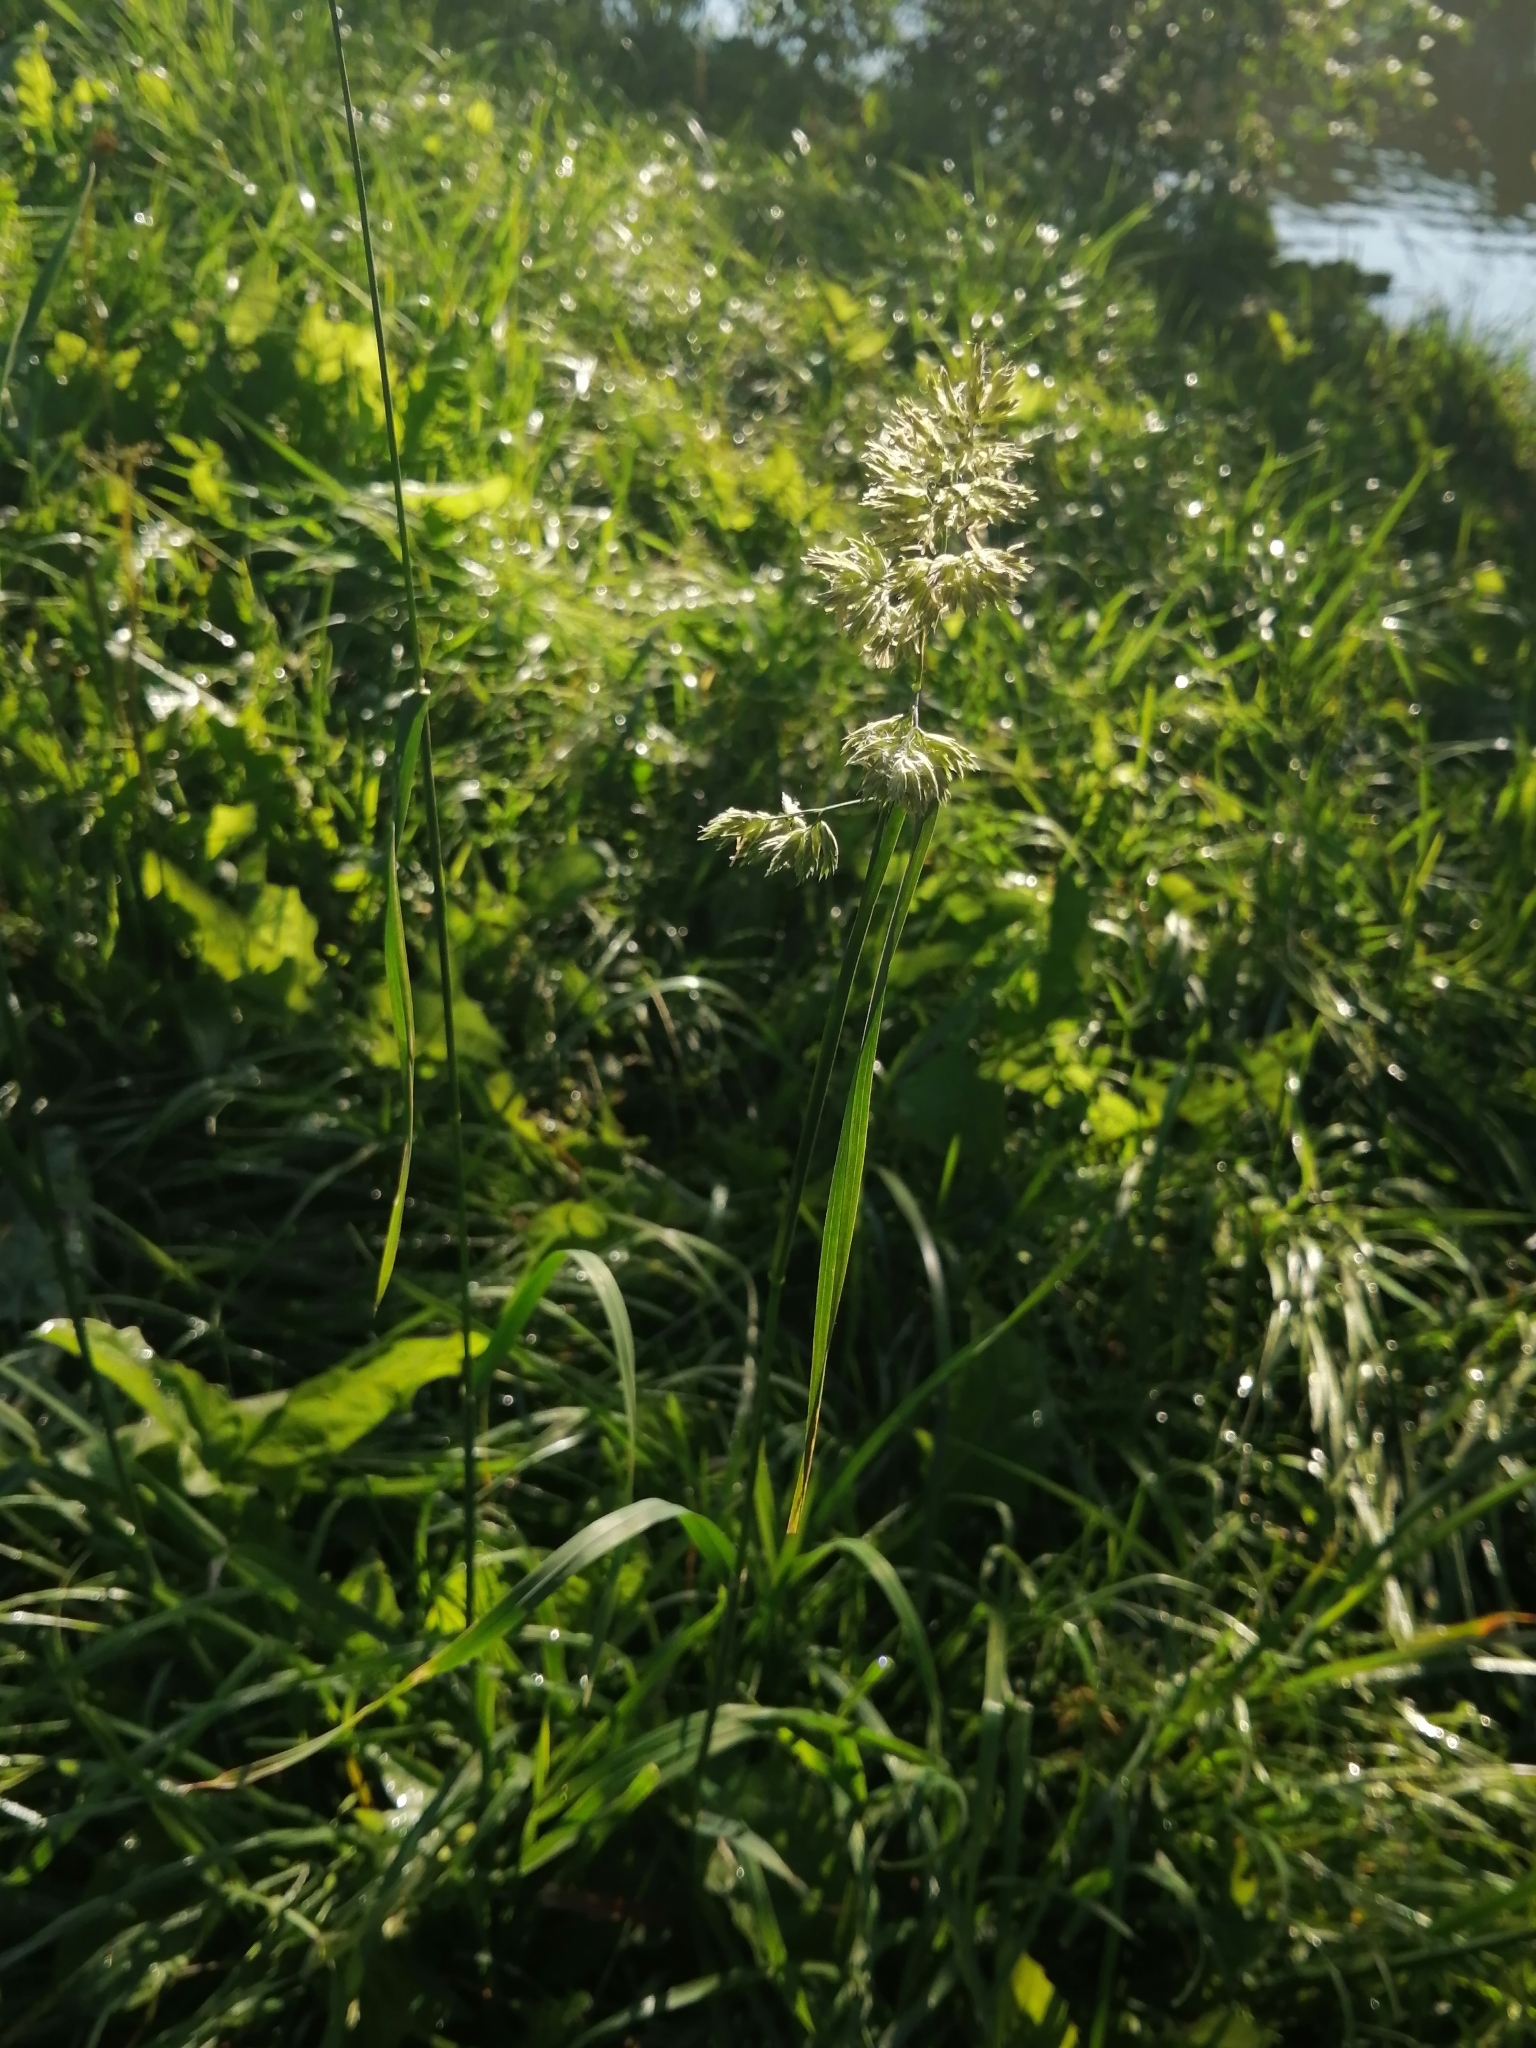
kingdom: Plantae
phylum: Tracheophyta
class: Liliopsida
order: Poales
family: Poaceae
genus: Dactylis
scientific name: Dactylis glomerata
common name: Orchardgrass
